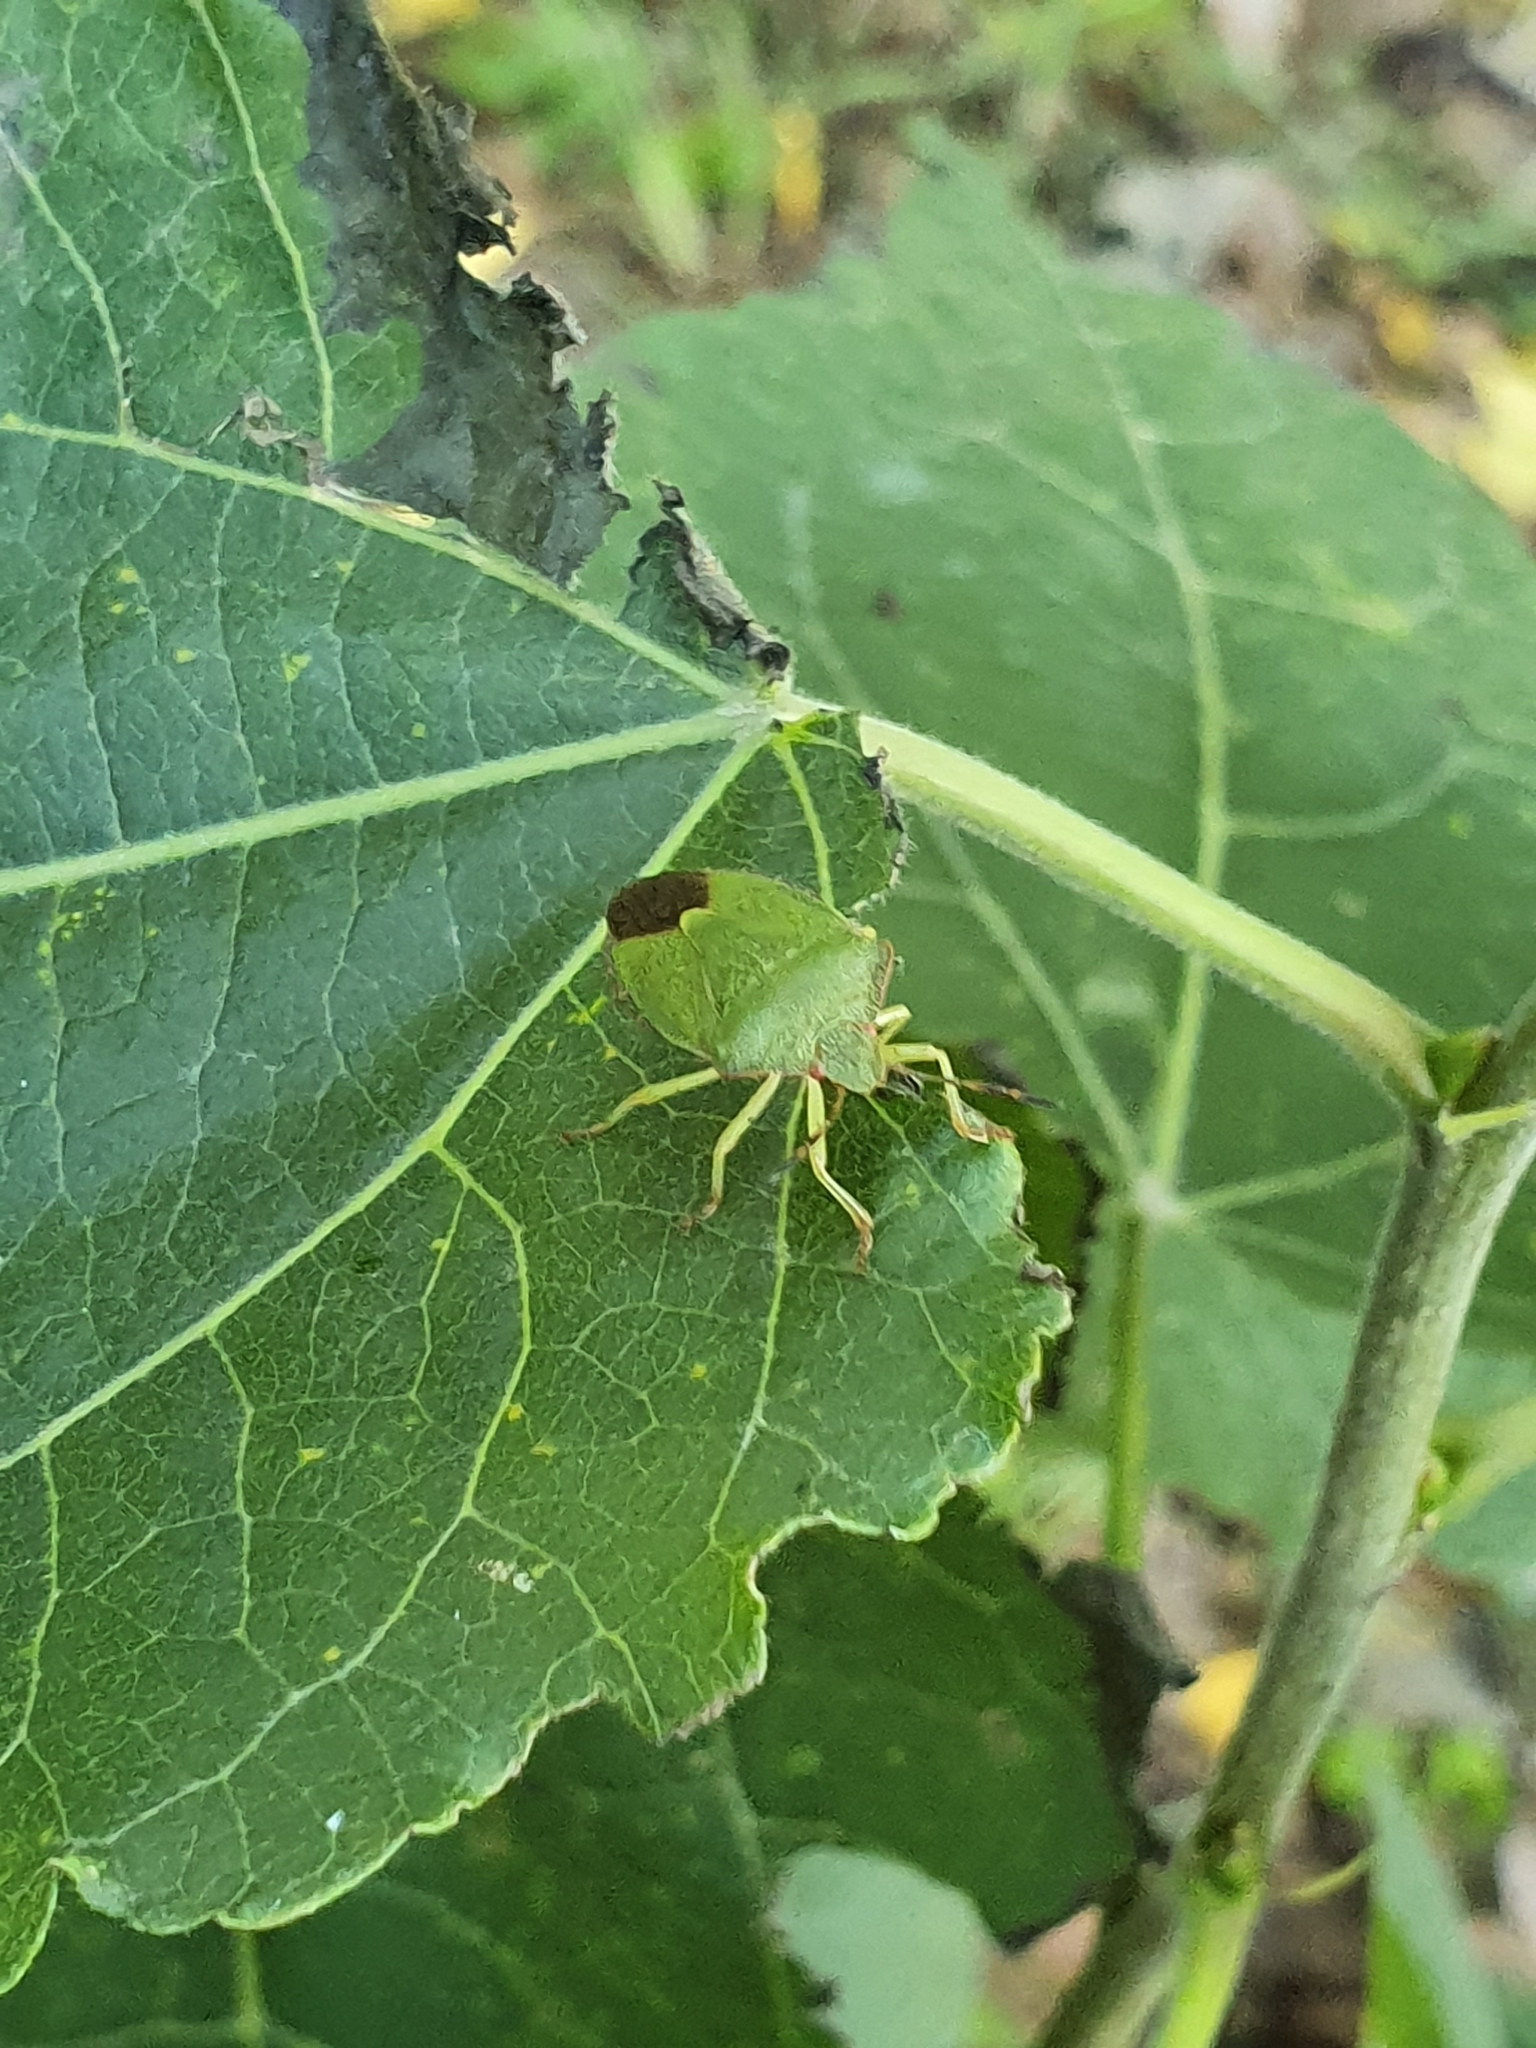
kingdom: Animalia
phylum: Arthropoda
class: Insecta
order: Hemiptera
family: Pentatomidae
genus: Palomena
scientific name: Palomena prasina
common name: Green shieldbug
